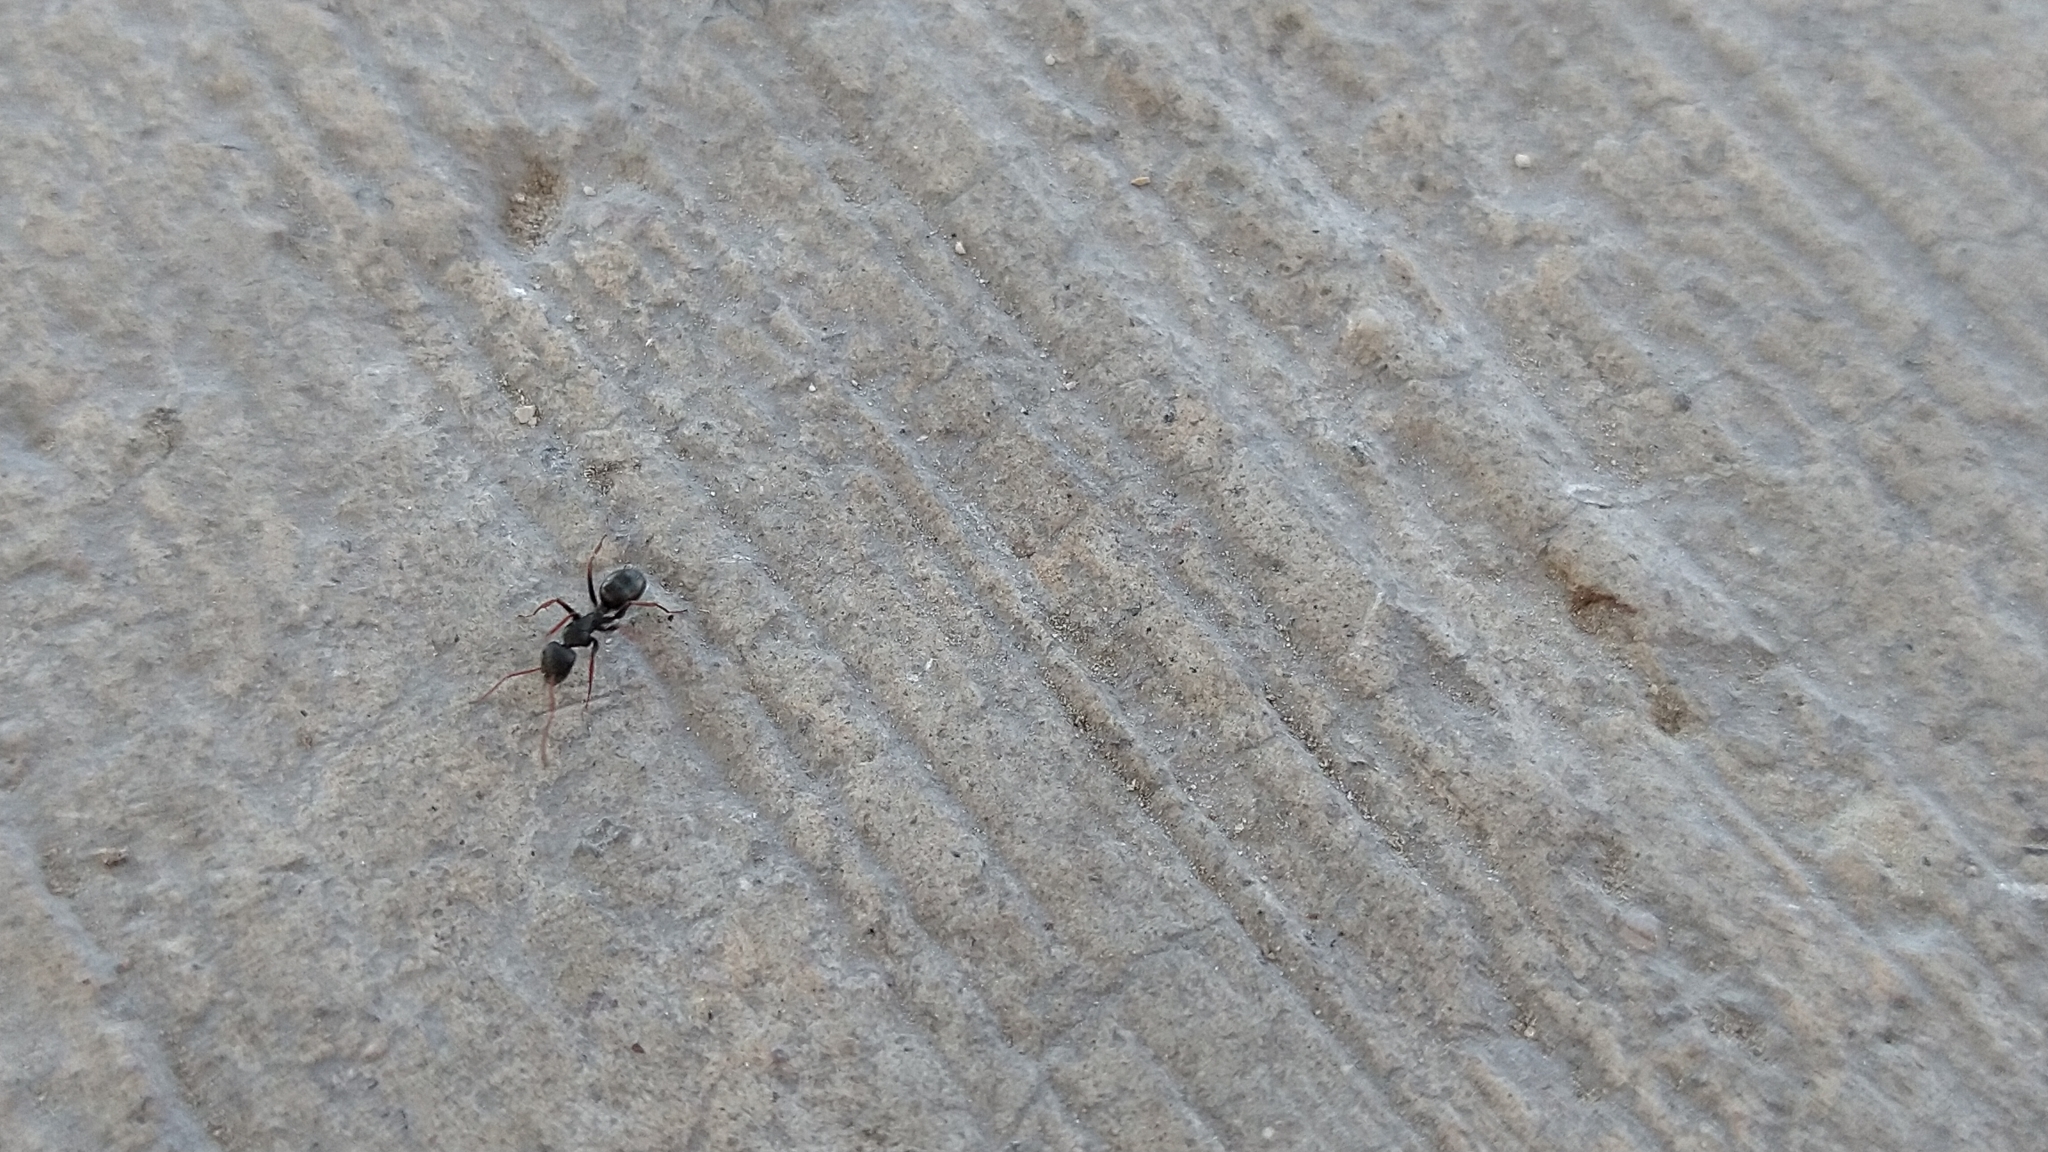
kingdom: Animalia
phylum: Arthropoda
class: Insecta
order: Hymenoptera
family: Formicidae
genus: Camponotus
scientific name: Camponotus mina
